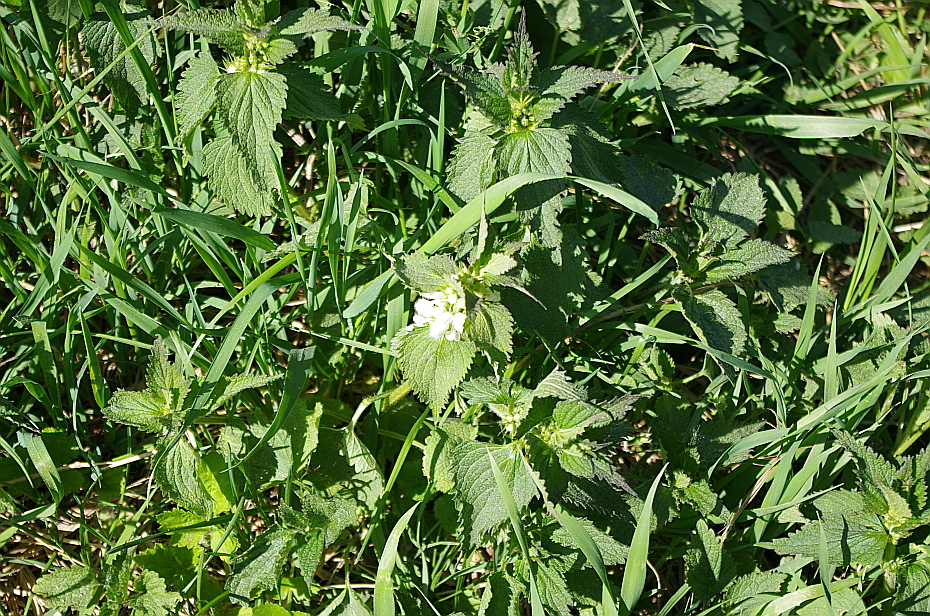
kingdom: Plantae
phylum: Tracheophyta
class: Magnoliopsida
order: Lamiales
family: Lamiaceae
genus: Lamium
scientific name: Lamium album
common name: White dead-nettle
